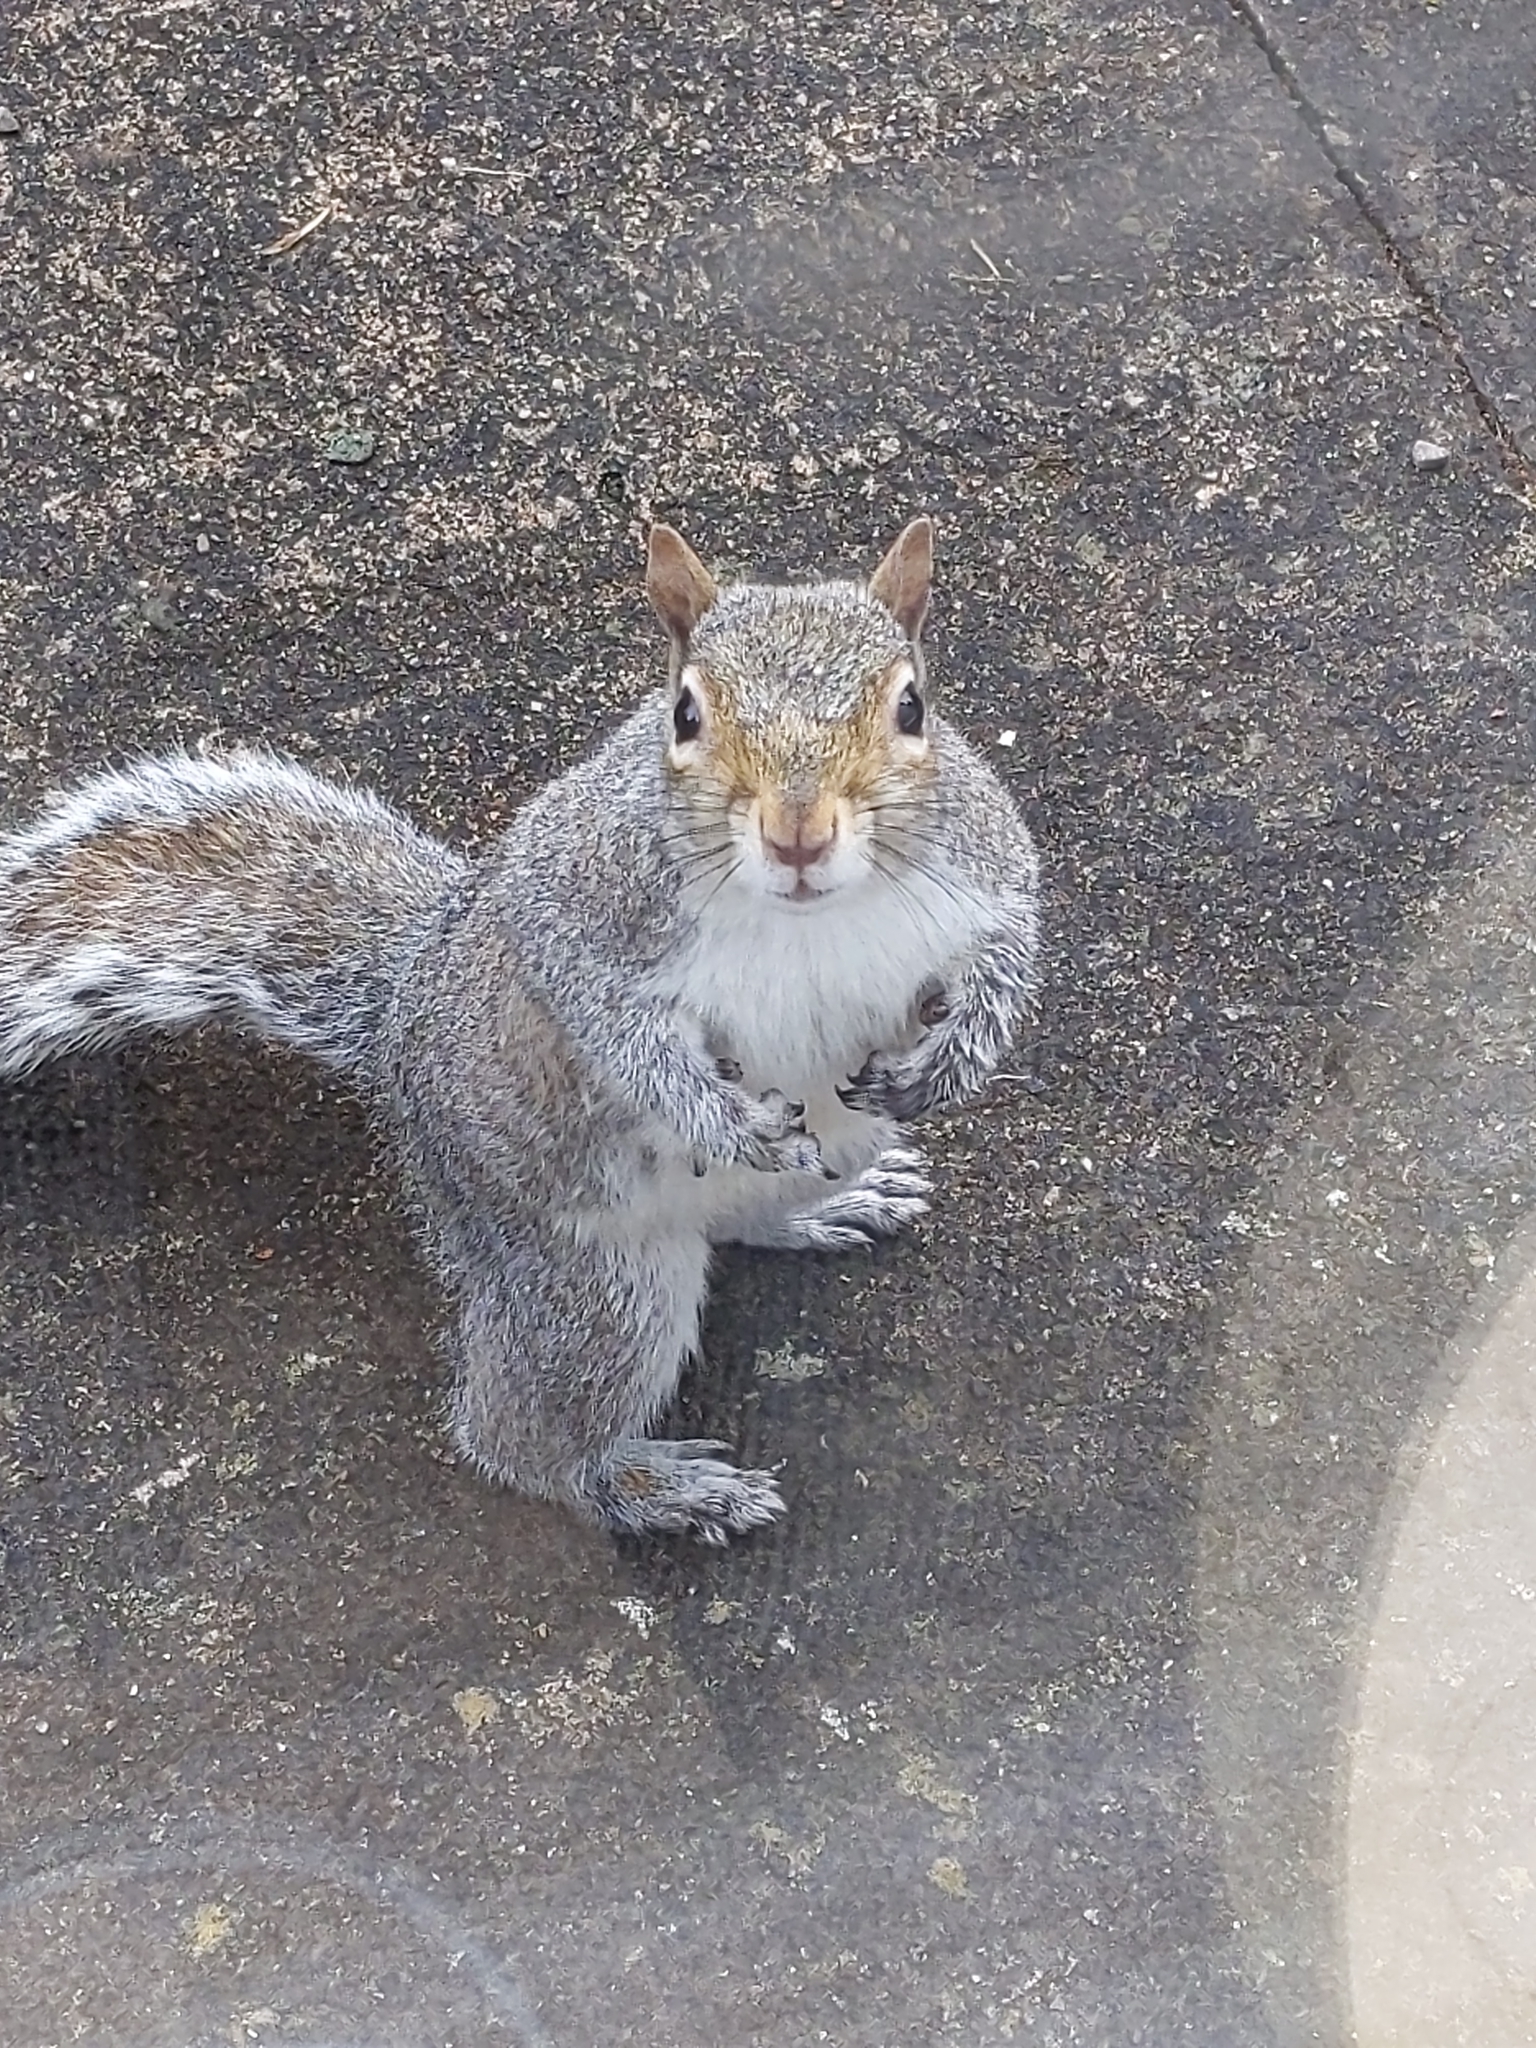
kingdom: Animalia
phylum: Chordata
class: Mammalia
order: Rodentia
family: Sciuridae
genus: Sciurus
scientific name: Sciurus carolinensis
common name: Eastern gray squirrel
